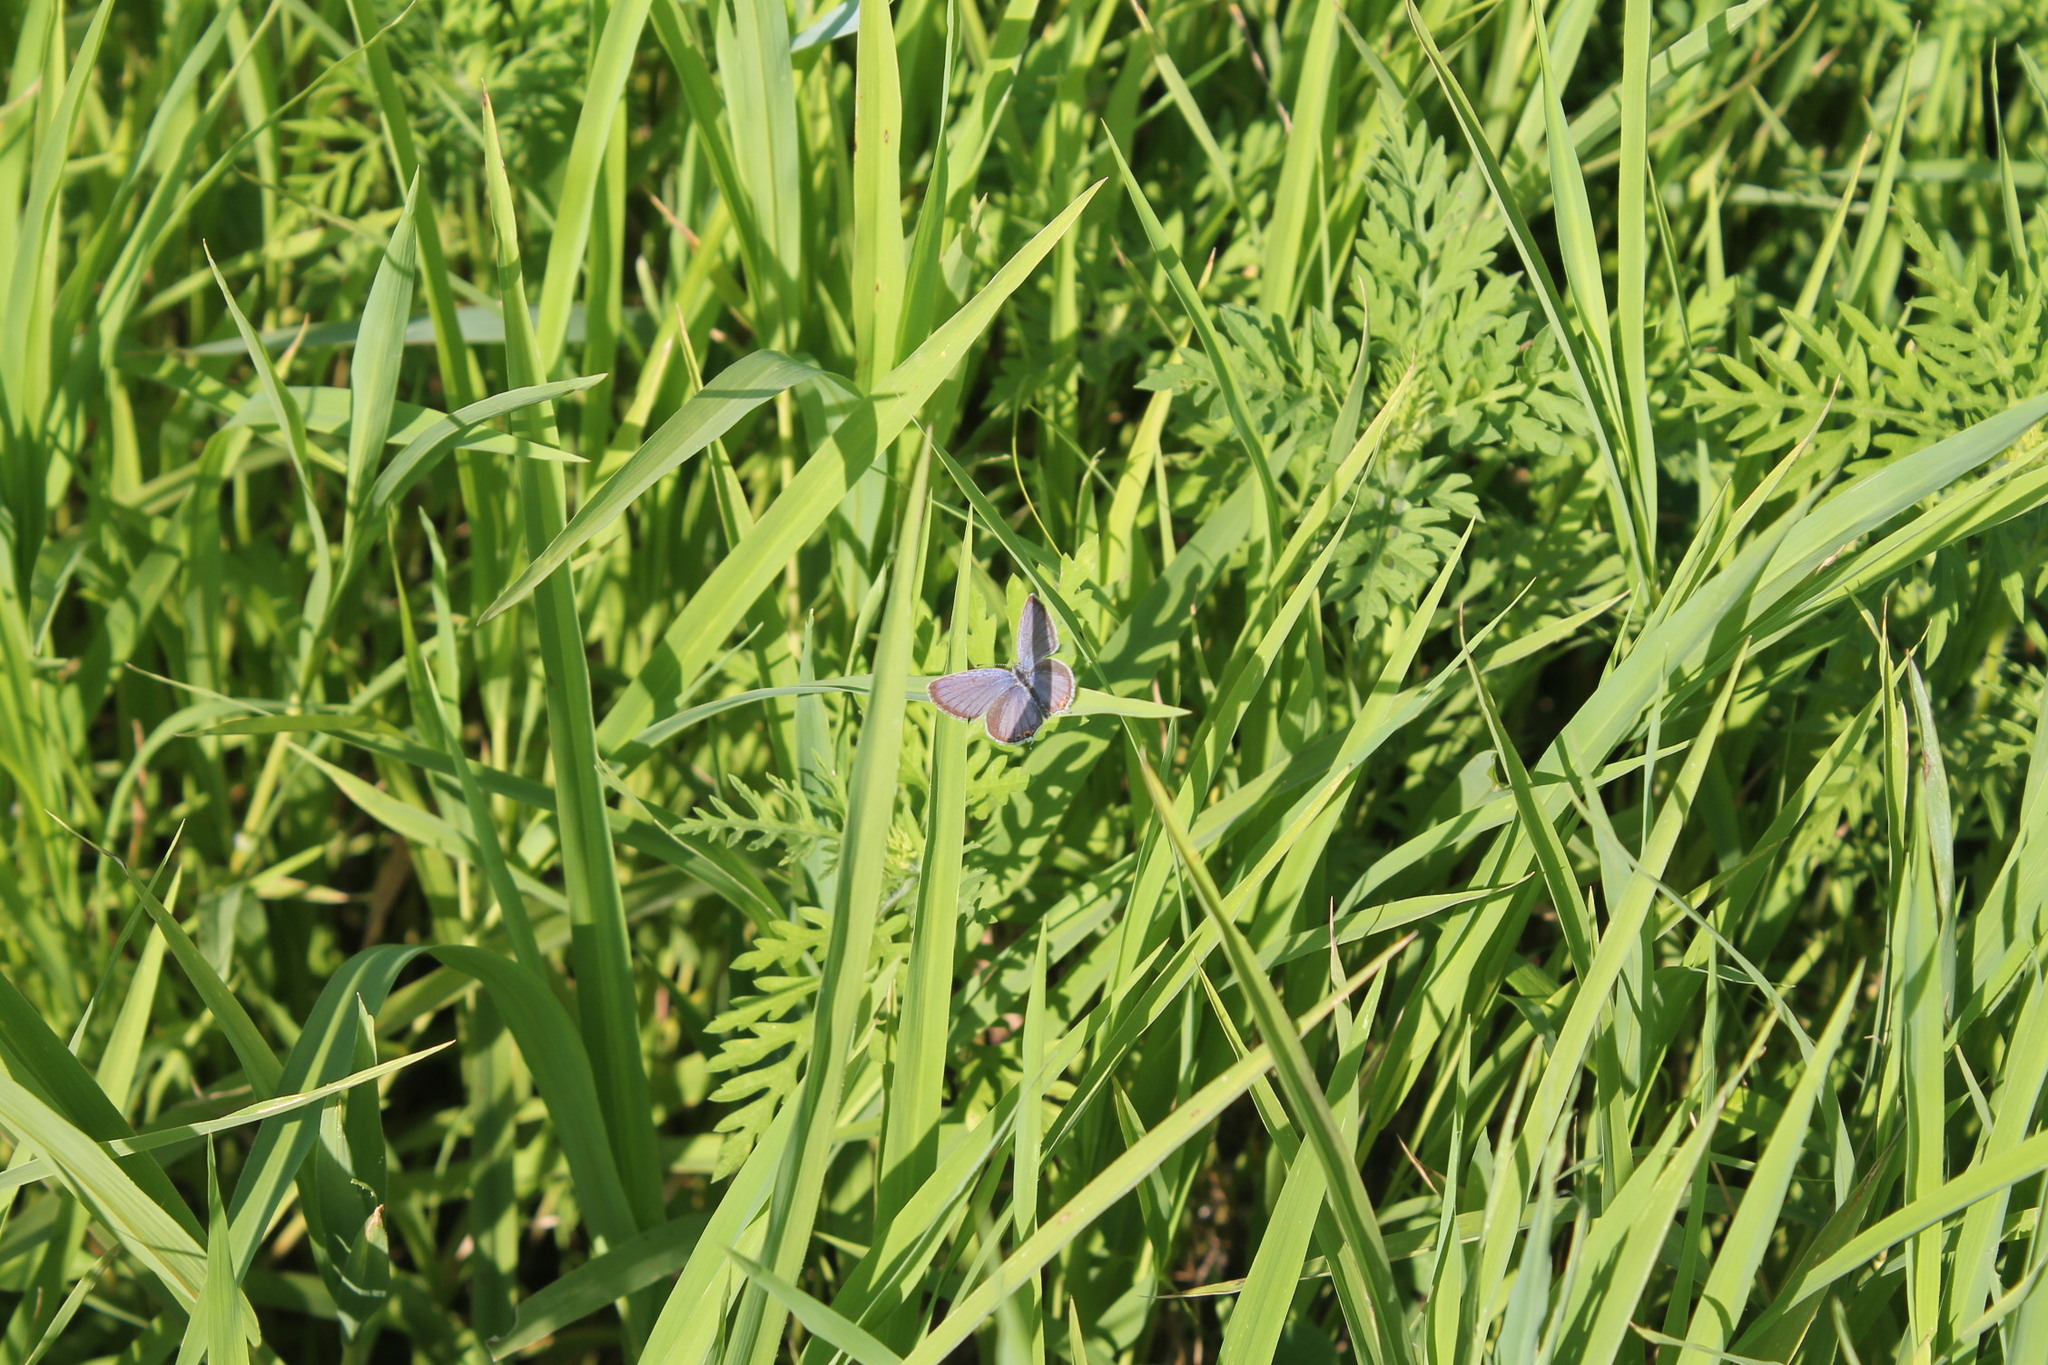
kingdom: Animalia
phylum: Arthropoda
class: Insecta
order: Lepidoptera
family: Lycaenidae
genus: Elkalyce
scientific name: Elkalyce comyntas
